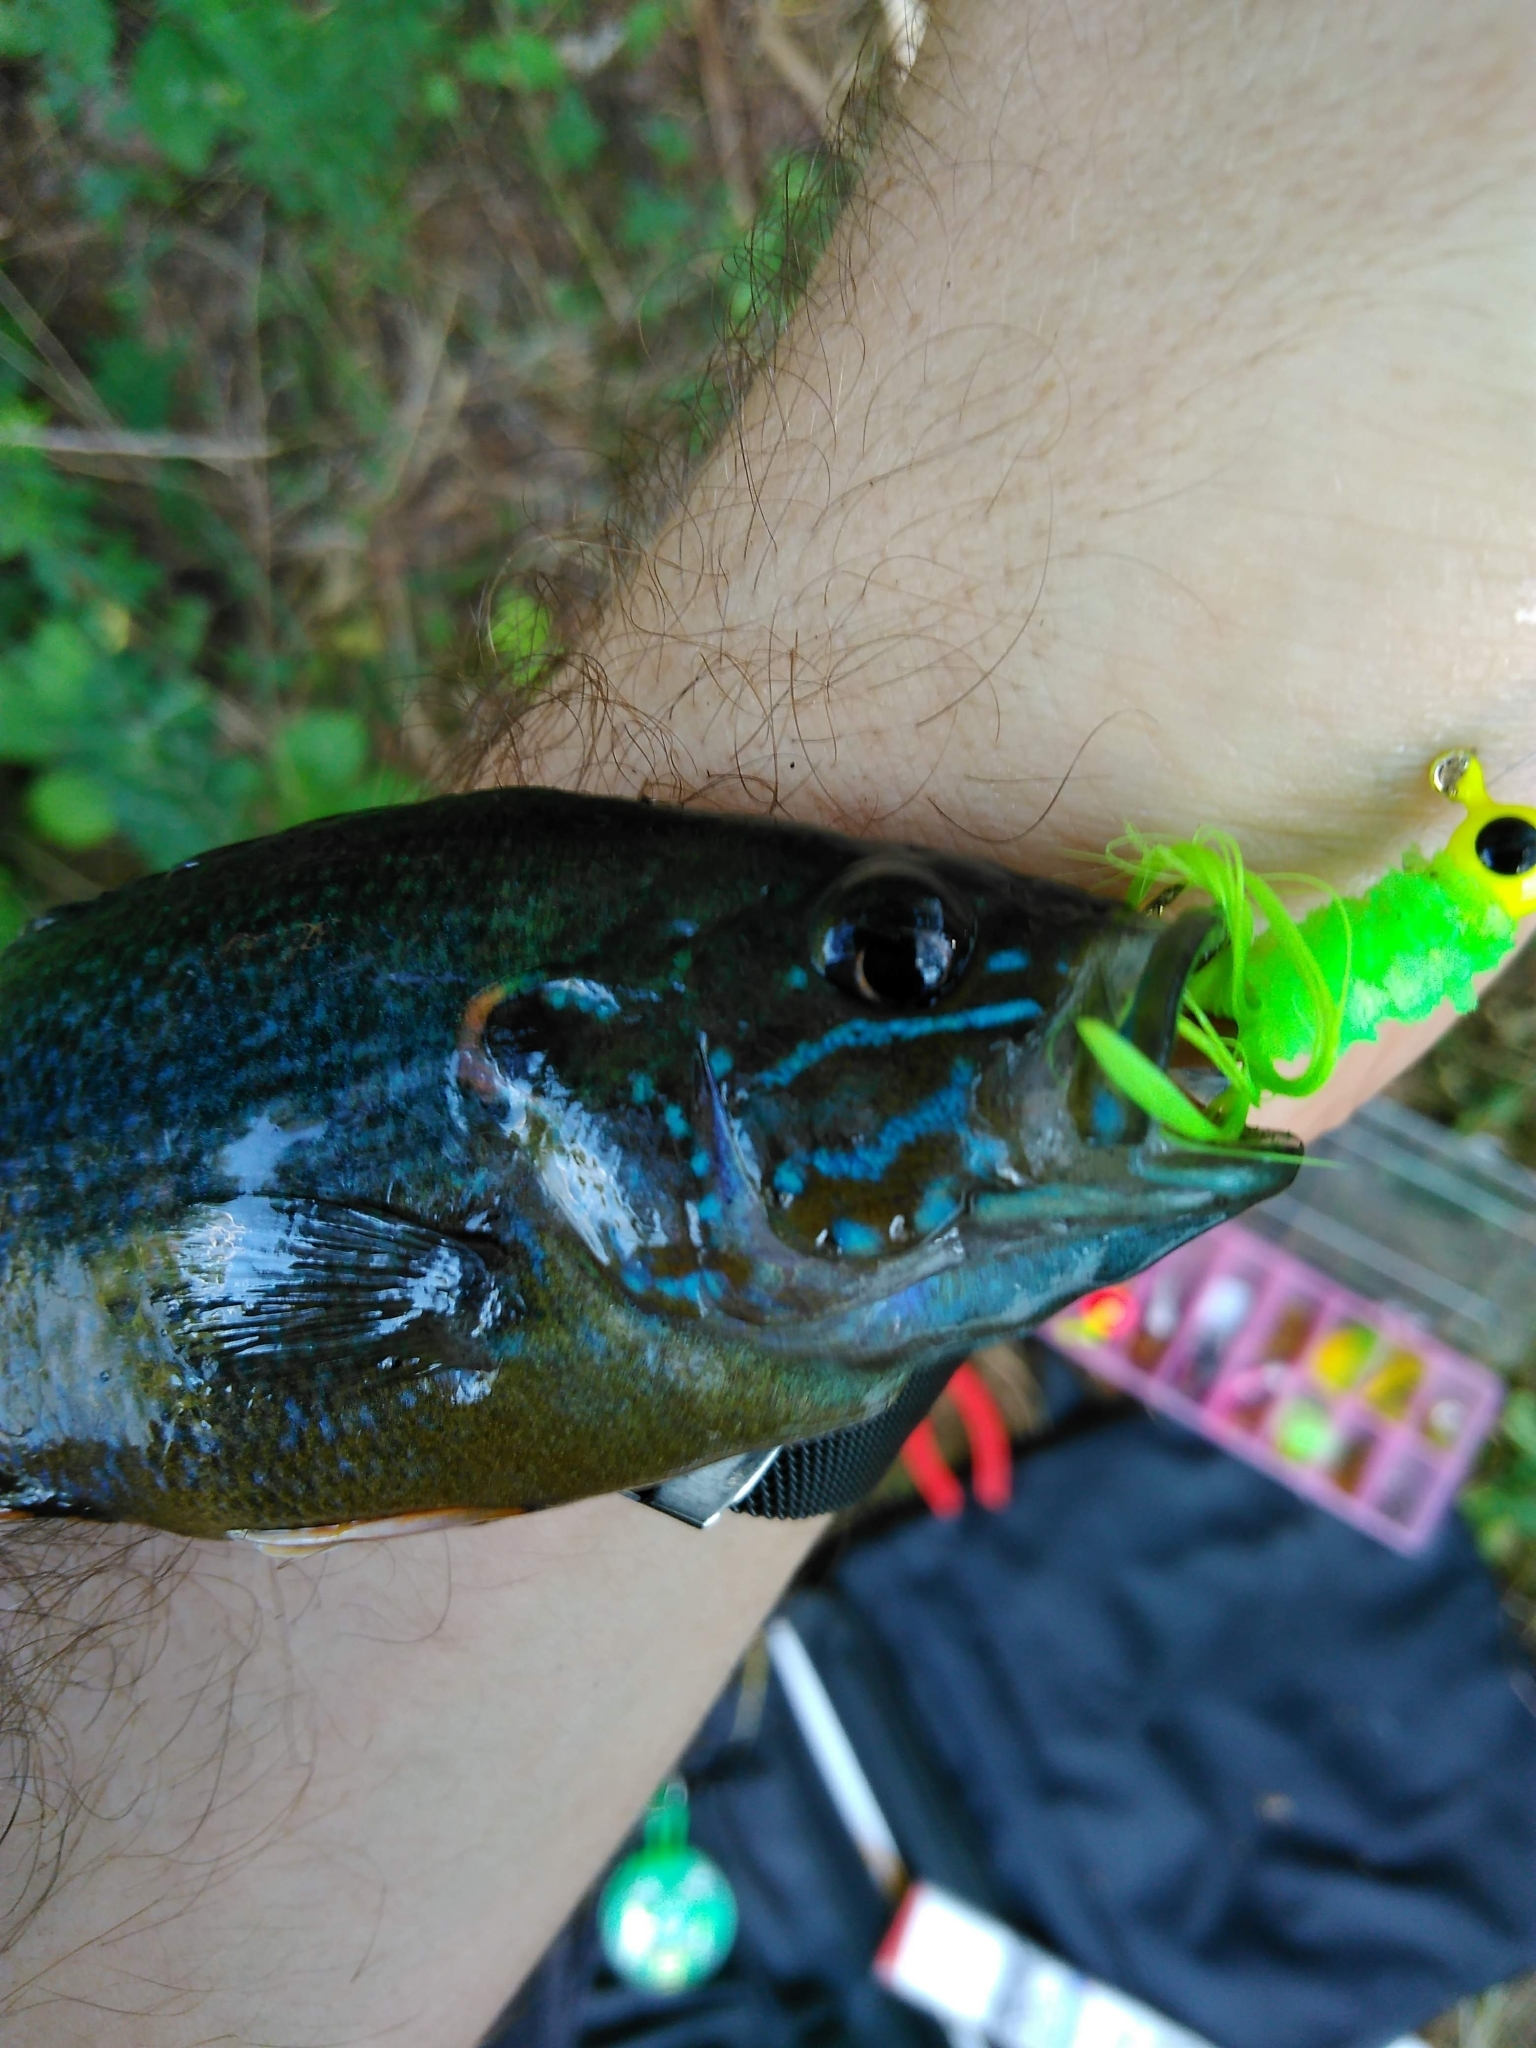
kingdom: Animalia
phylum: Chordata
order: Perciformes
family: Centrarchidae
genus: Lepomis
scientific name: Lepomis cyanellus
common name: Green sunfish
